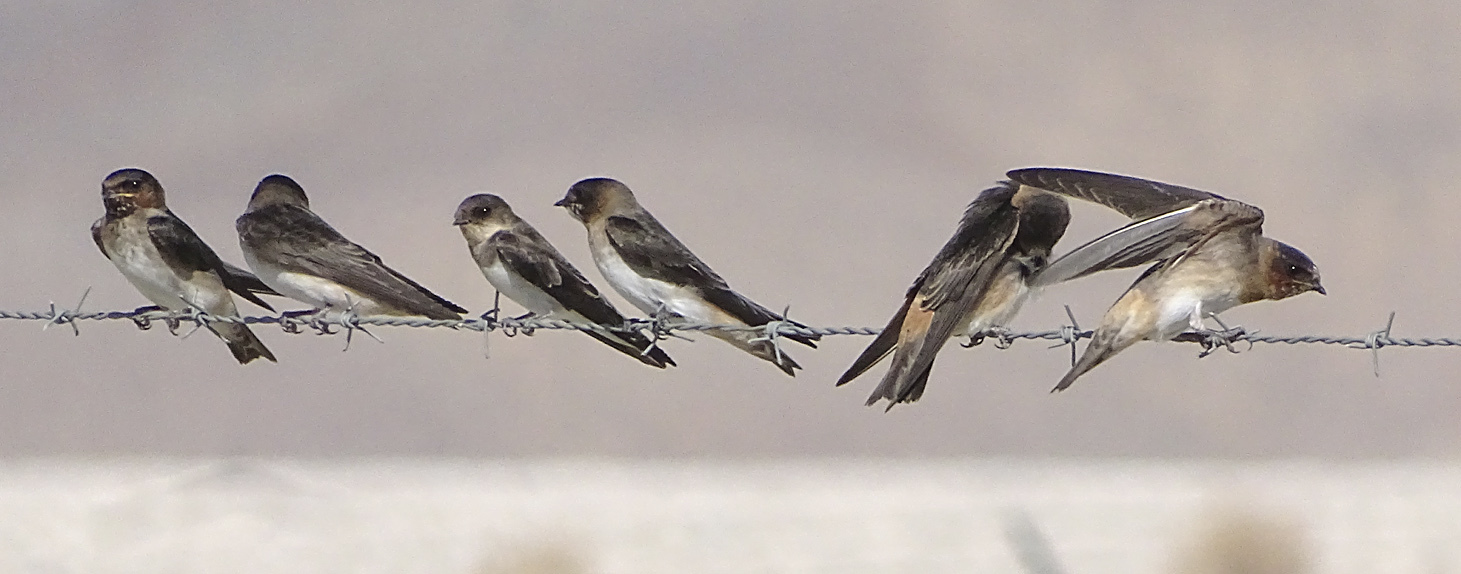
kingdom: Animalia
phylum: Chordata
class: Aves
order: Passeriformes
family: Hirundinidae
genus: Petrochelidon
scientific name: Petrochelidon pyrrhonota
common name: American cliff swallow
